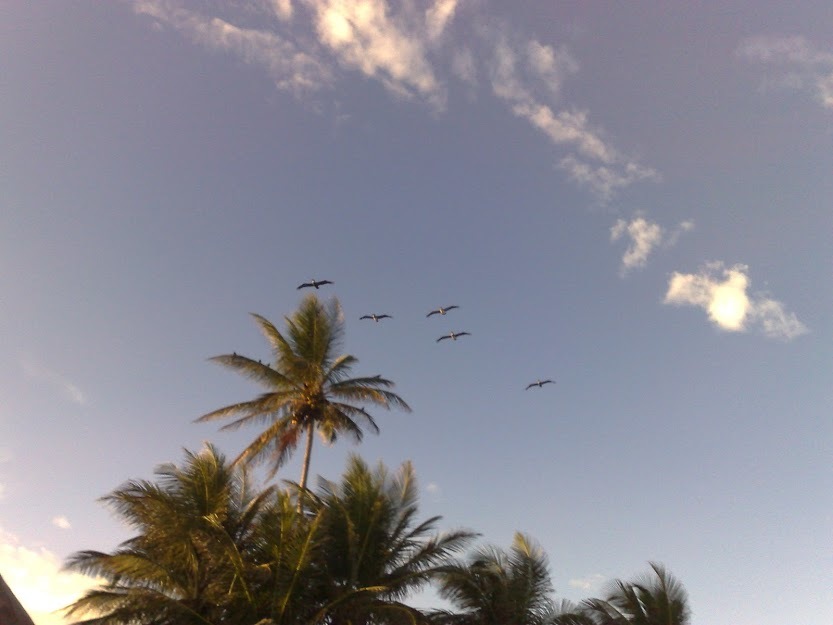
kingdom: Animalia
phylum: Chordata
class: Aves
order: Pelecaniformes
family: Pelecanidae
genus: Pelecanus
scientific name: Pelecanus occidentalis
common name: Brown pelican
